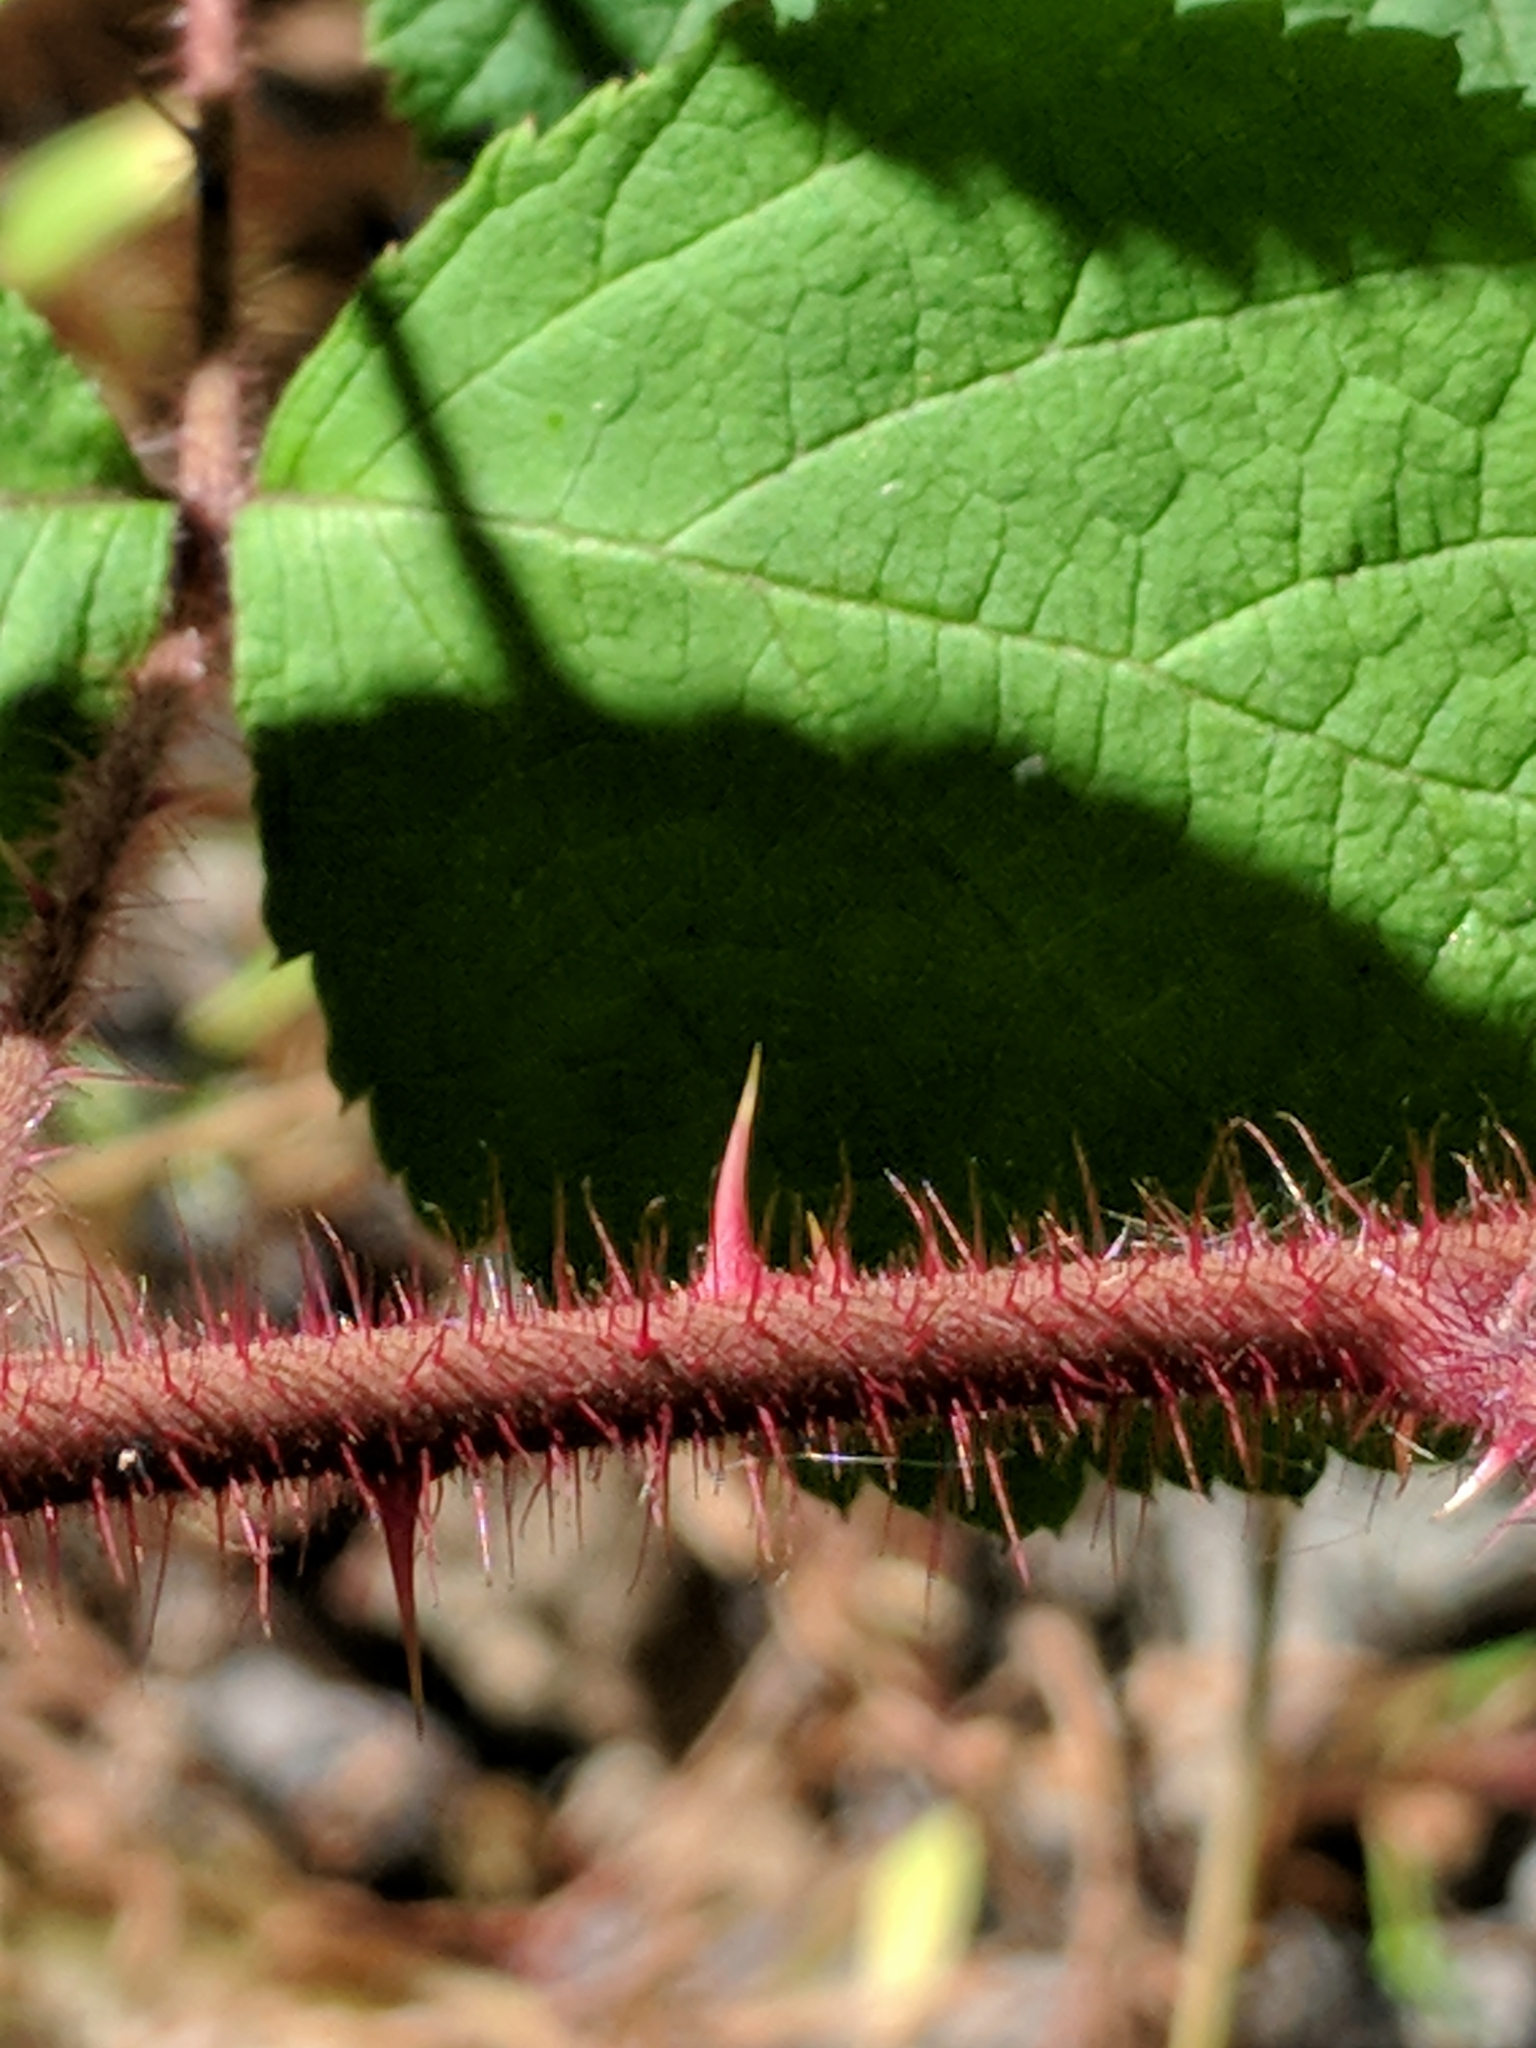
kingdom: Plantae
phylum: Tracheophyta
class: Magnoliopsida
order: Rosales
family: Rosaceae
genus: Rubus
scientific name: Rubus phoenicolasius
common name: Japanese wineberry
